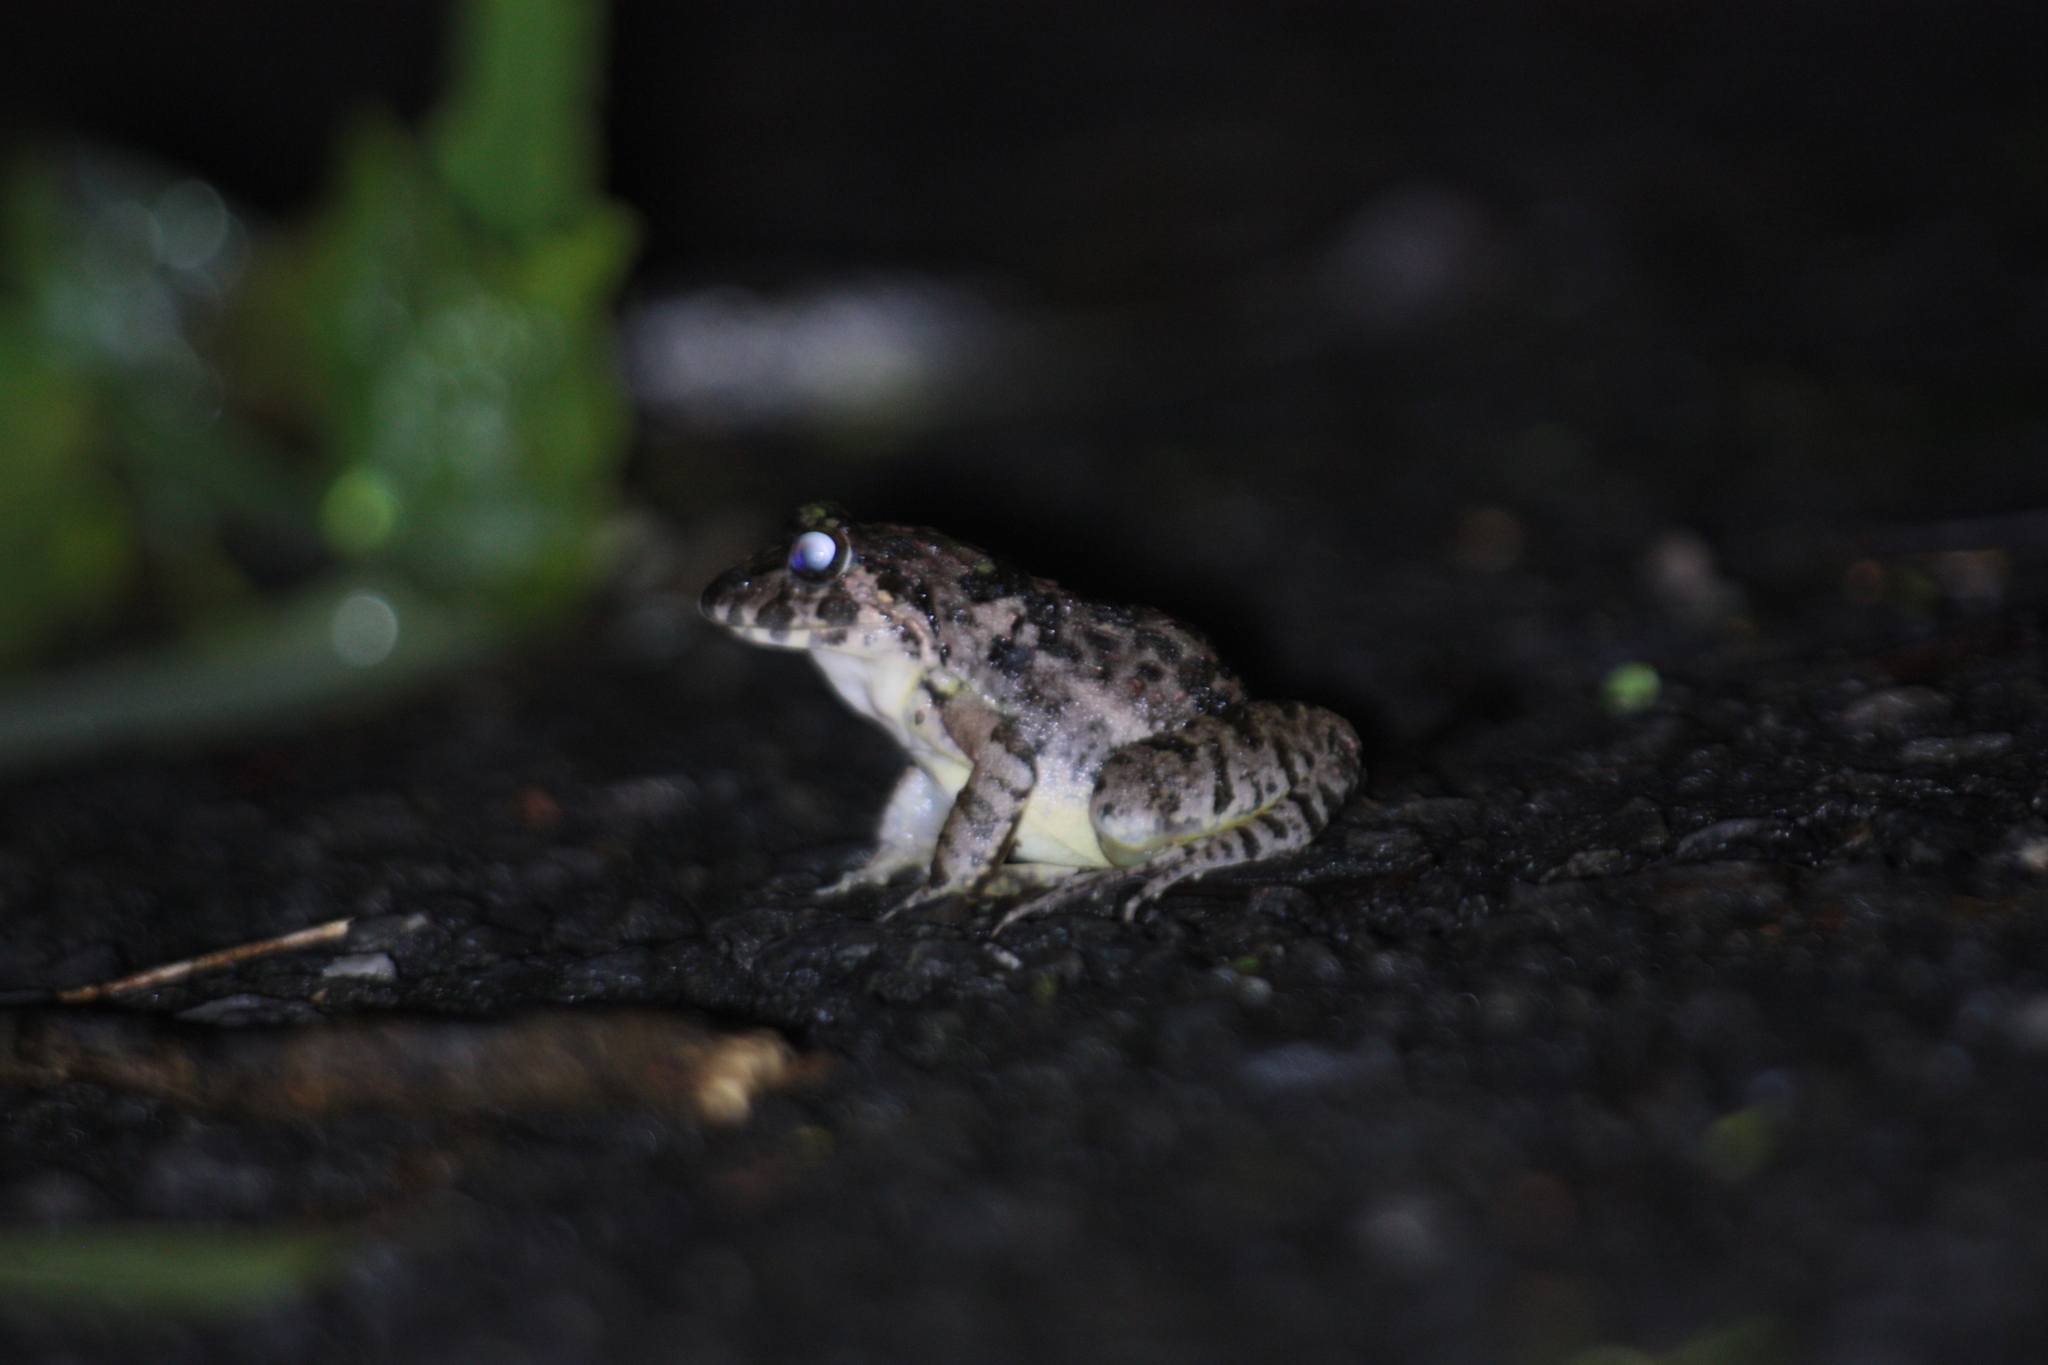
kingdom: Animalia
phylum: Chordata
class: Amphibia
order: Anura
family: Dicroglossidae
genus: Fejervarya
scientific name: Fejervarya limnocharis
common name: Asian grass frog/common pond frog/field frog/grass frog/indian rice frog
